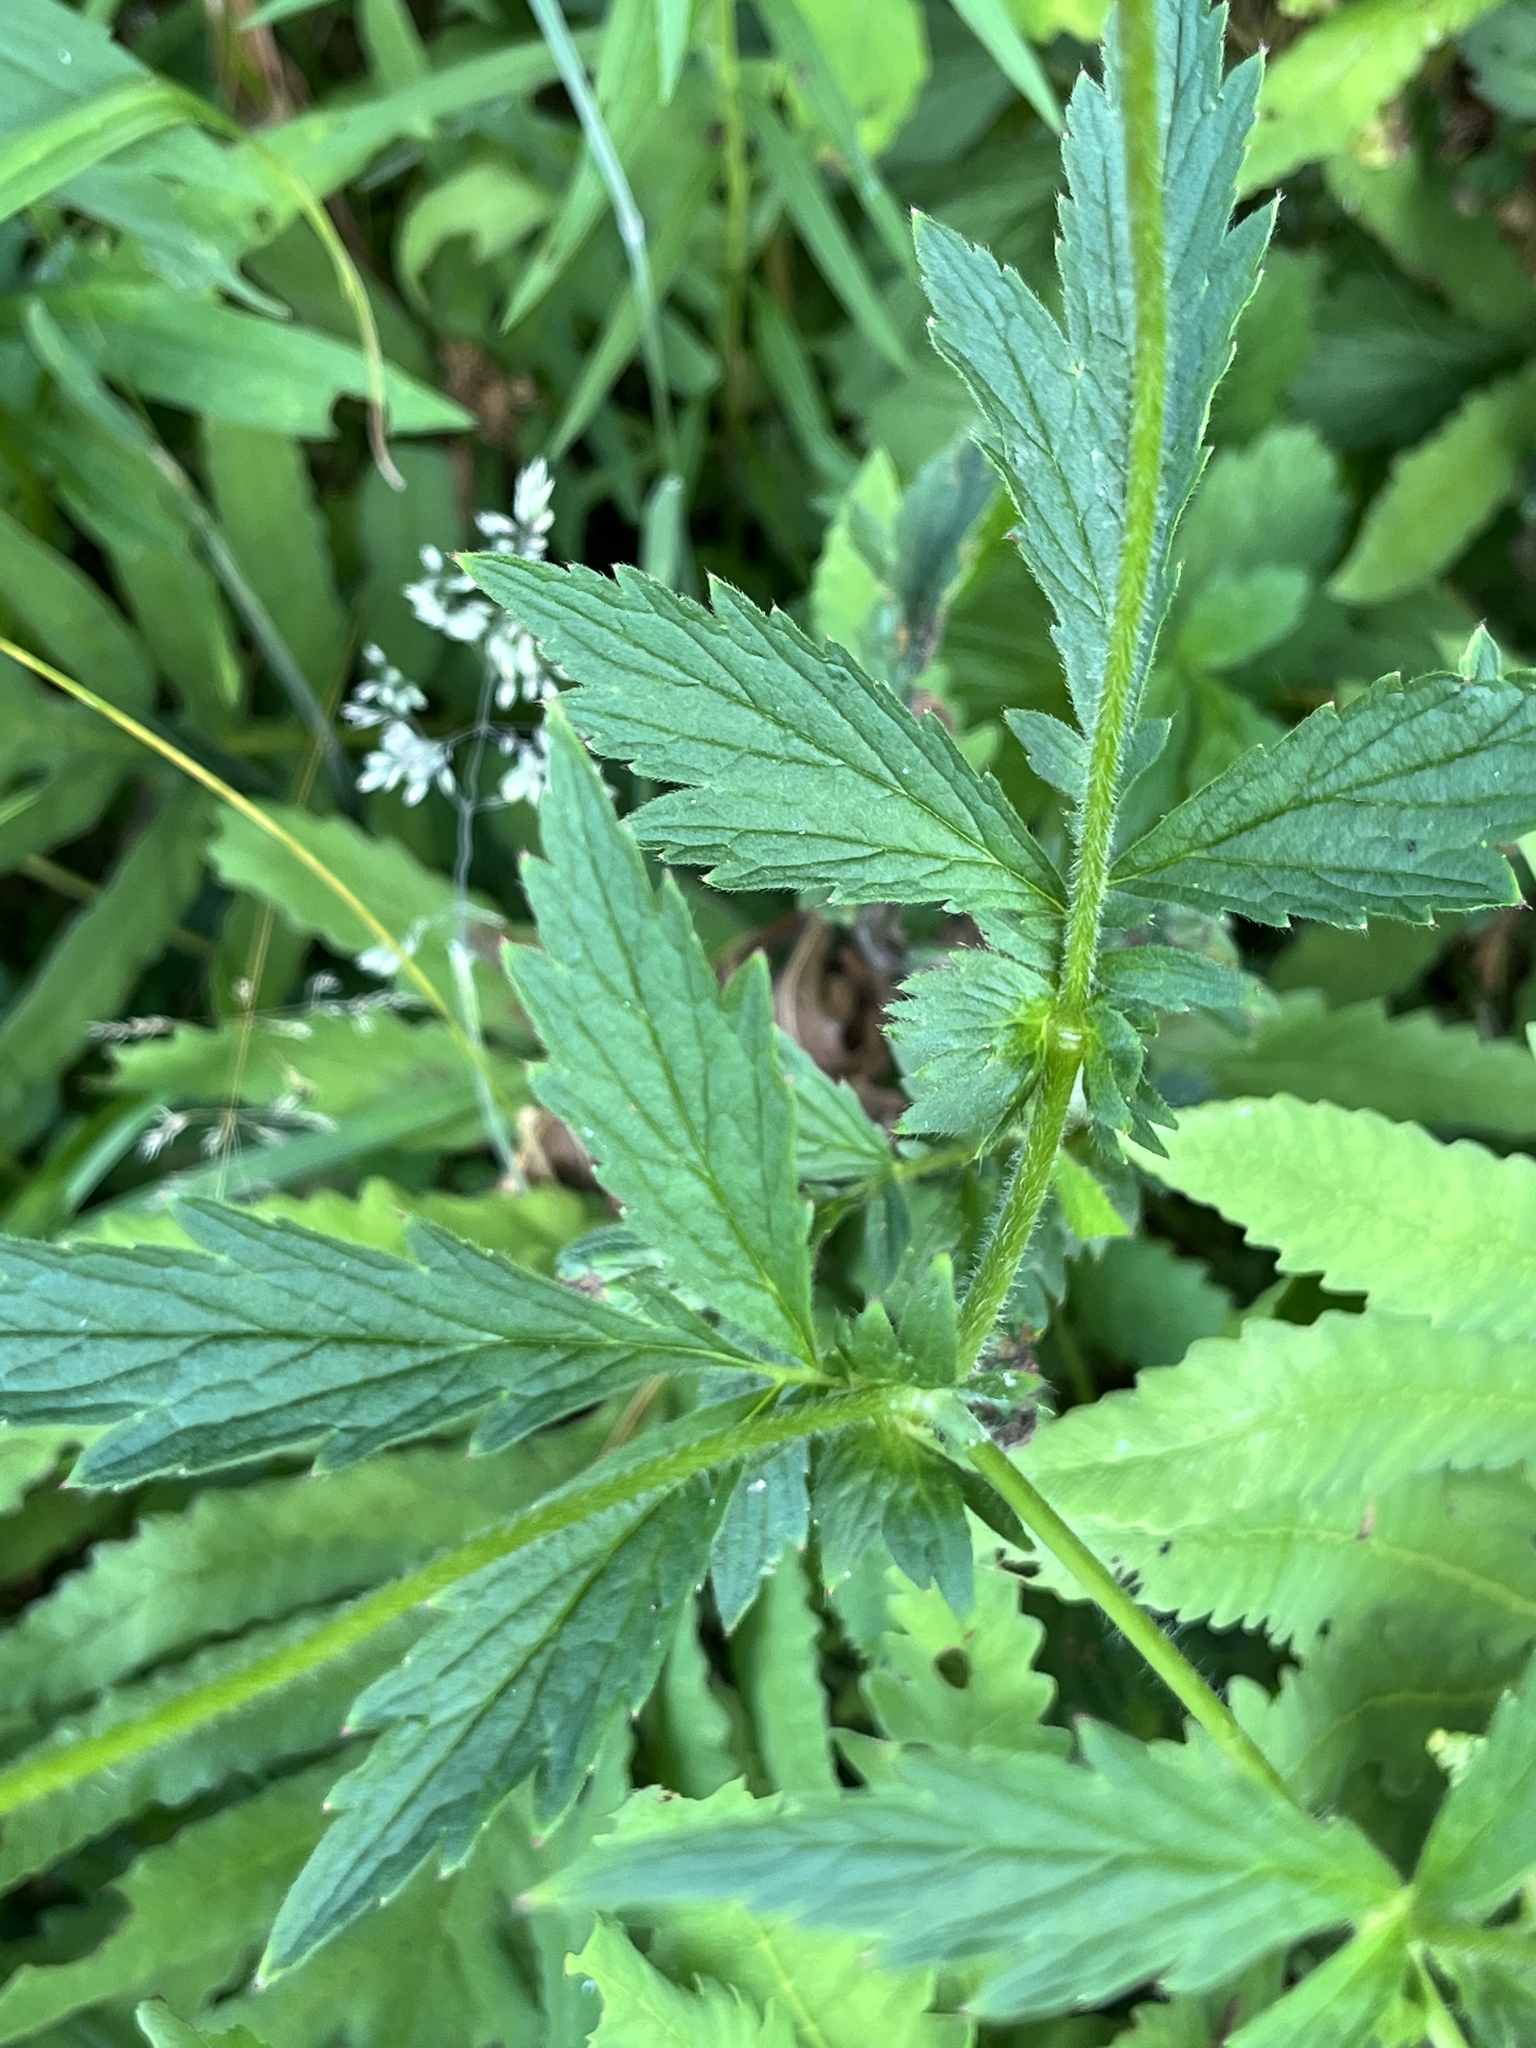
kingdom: Plantae
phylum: Tracheophyta
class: Magnoliopsida
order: Rosales
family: Rosaceae
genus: Geum
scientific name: Geum aleppicum
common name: Yellow avens
